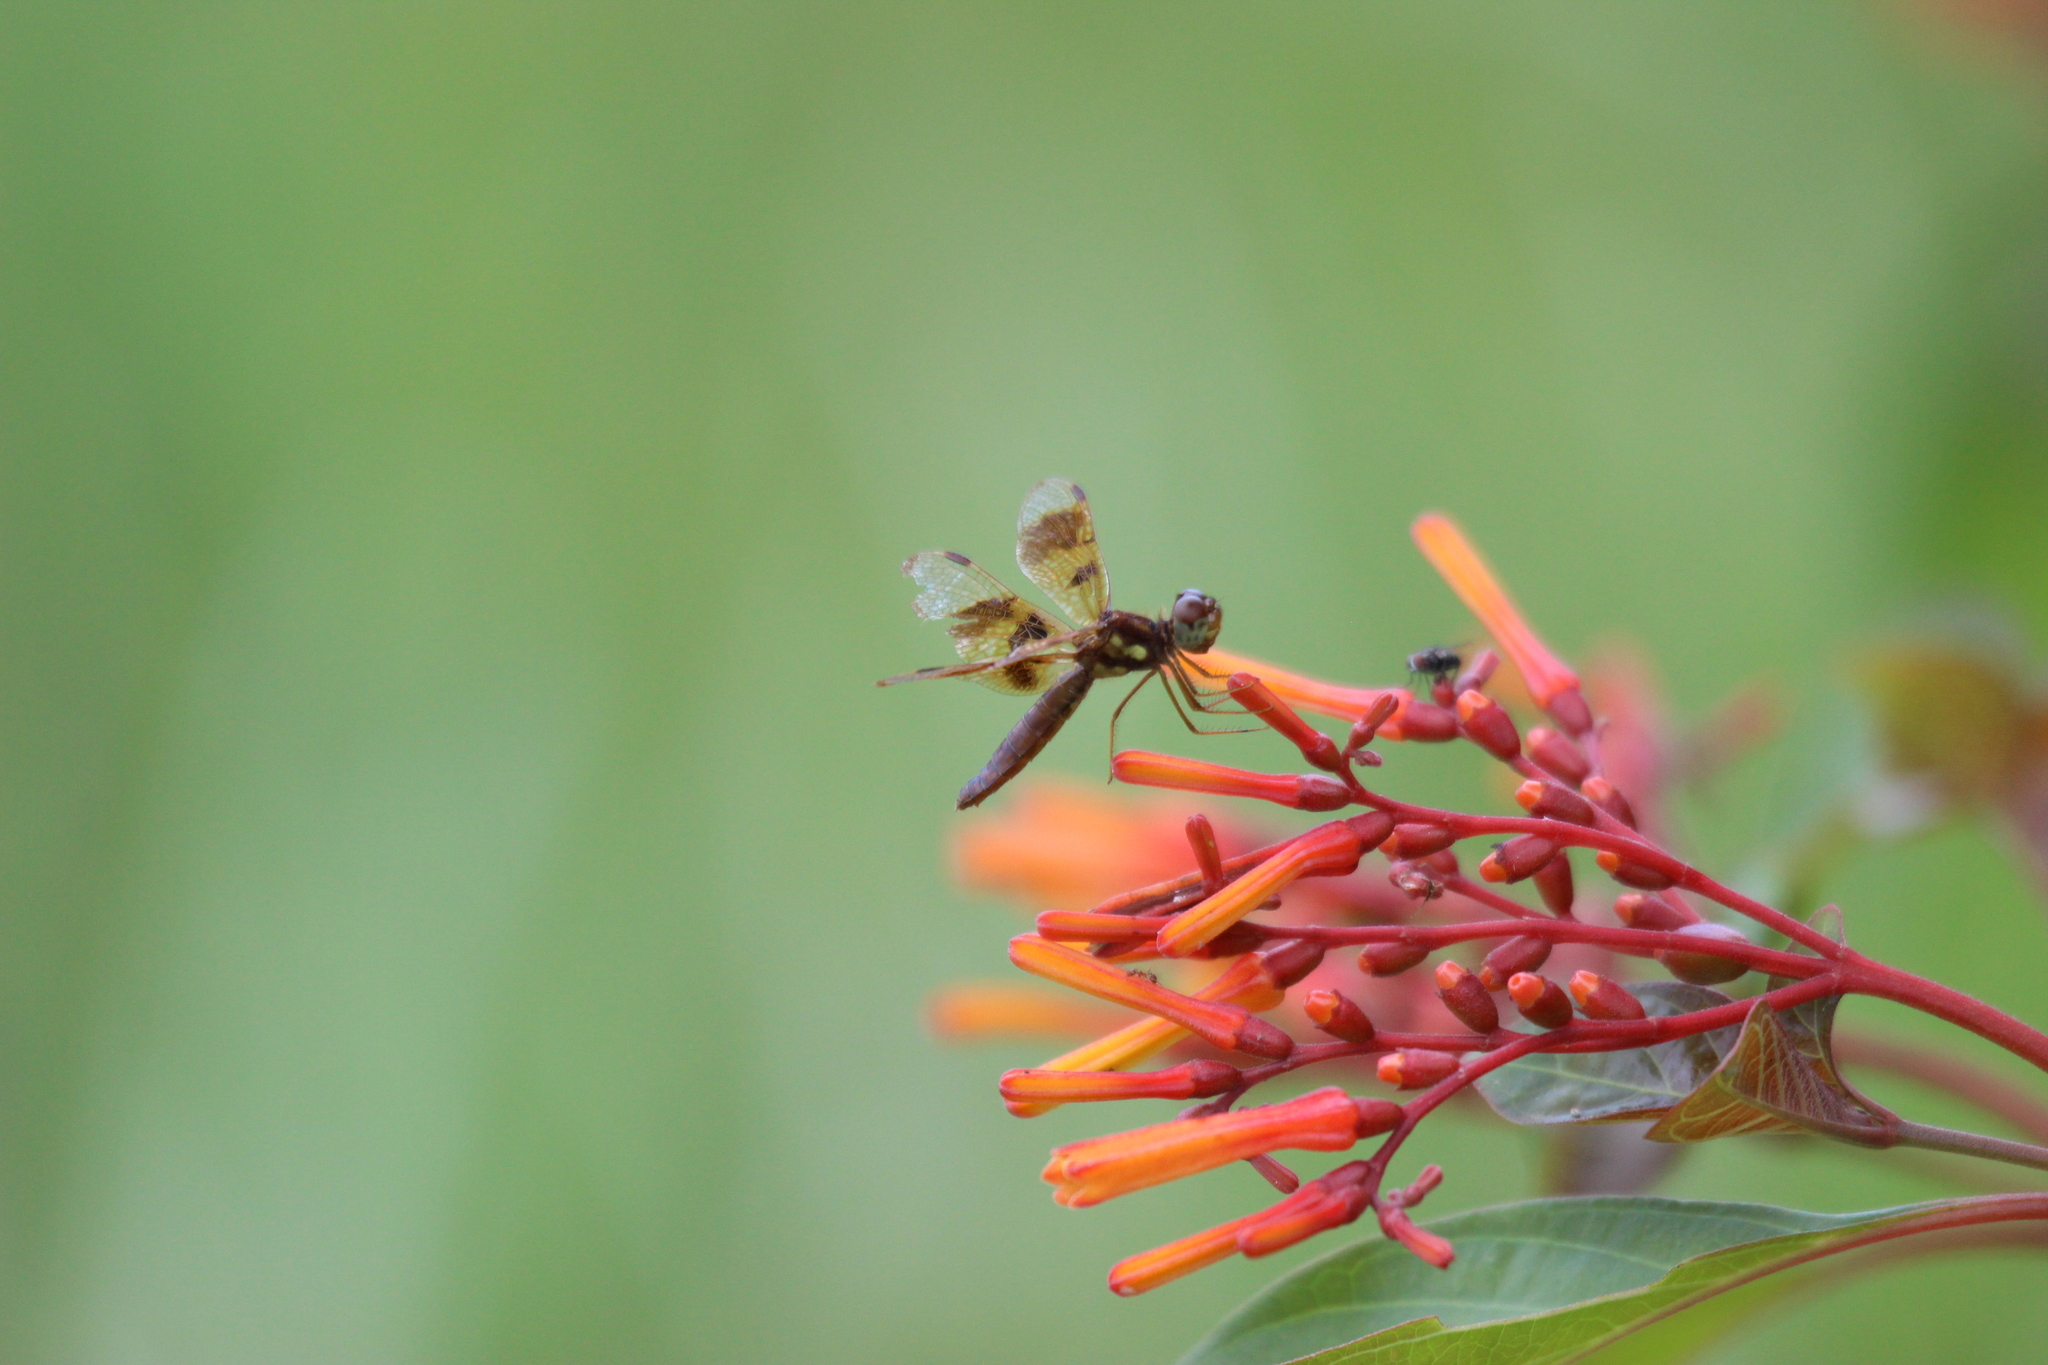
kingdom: Animalia
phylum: Arthropoda
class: Insecta
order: Odonata
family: Libellulidae
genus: Perithemis
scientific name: Perithemis tenera
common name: Eastern amberwing
